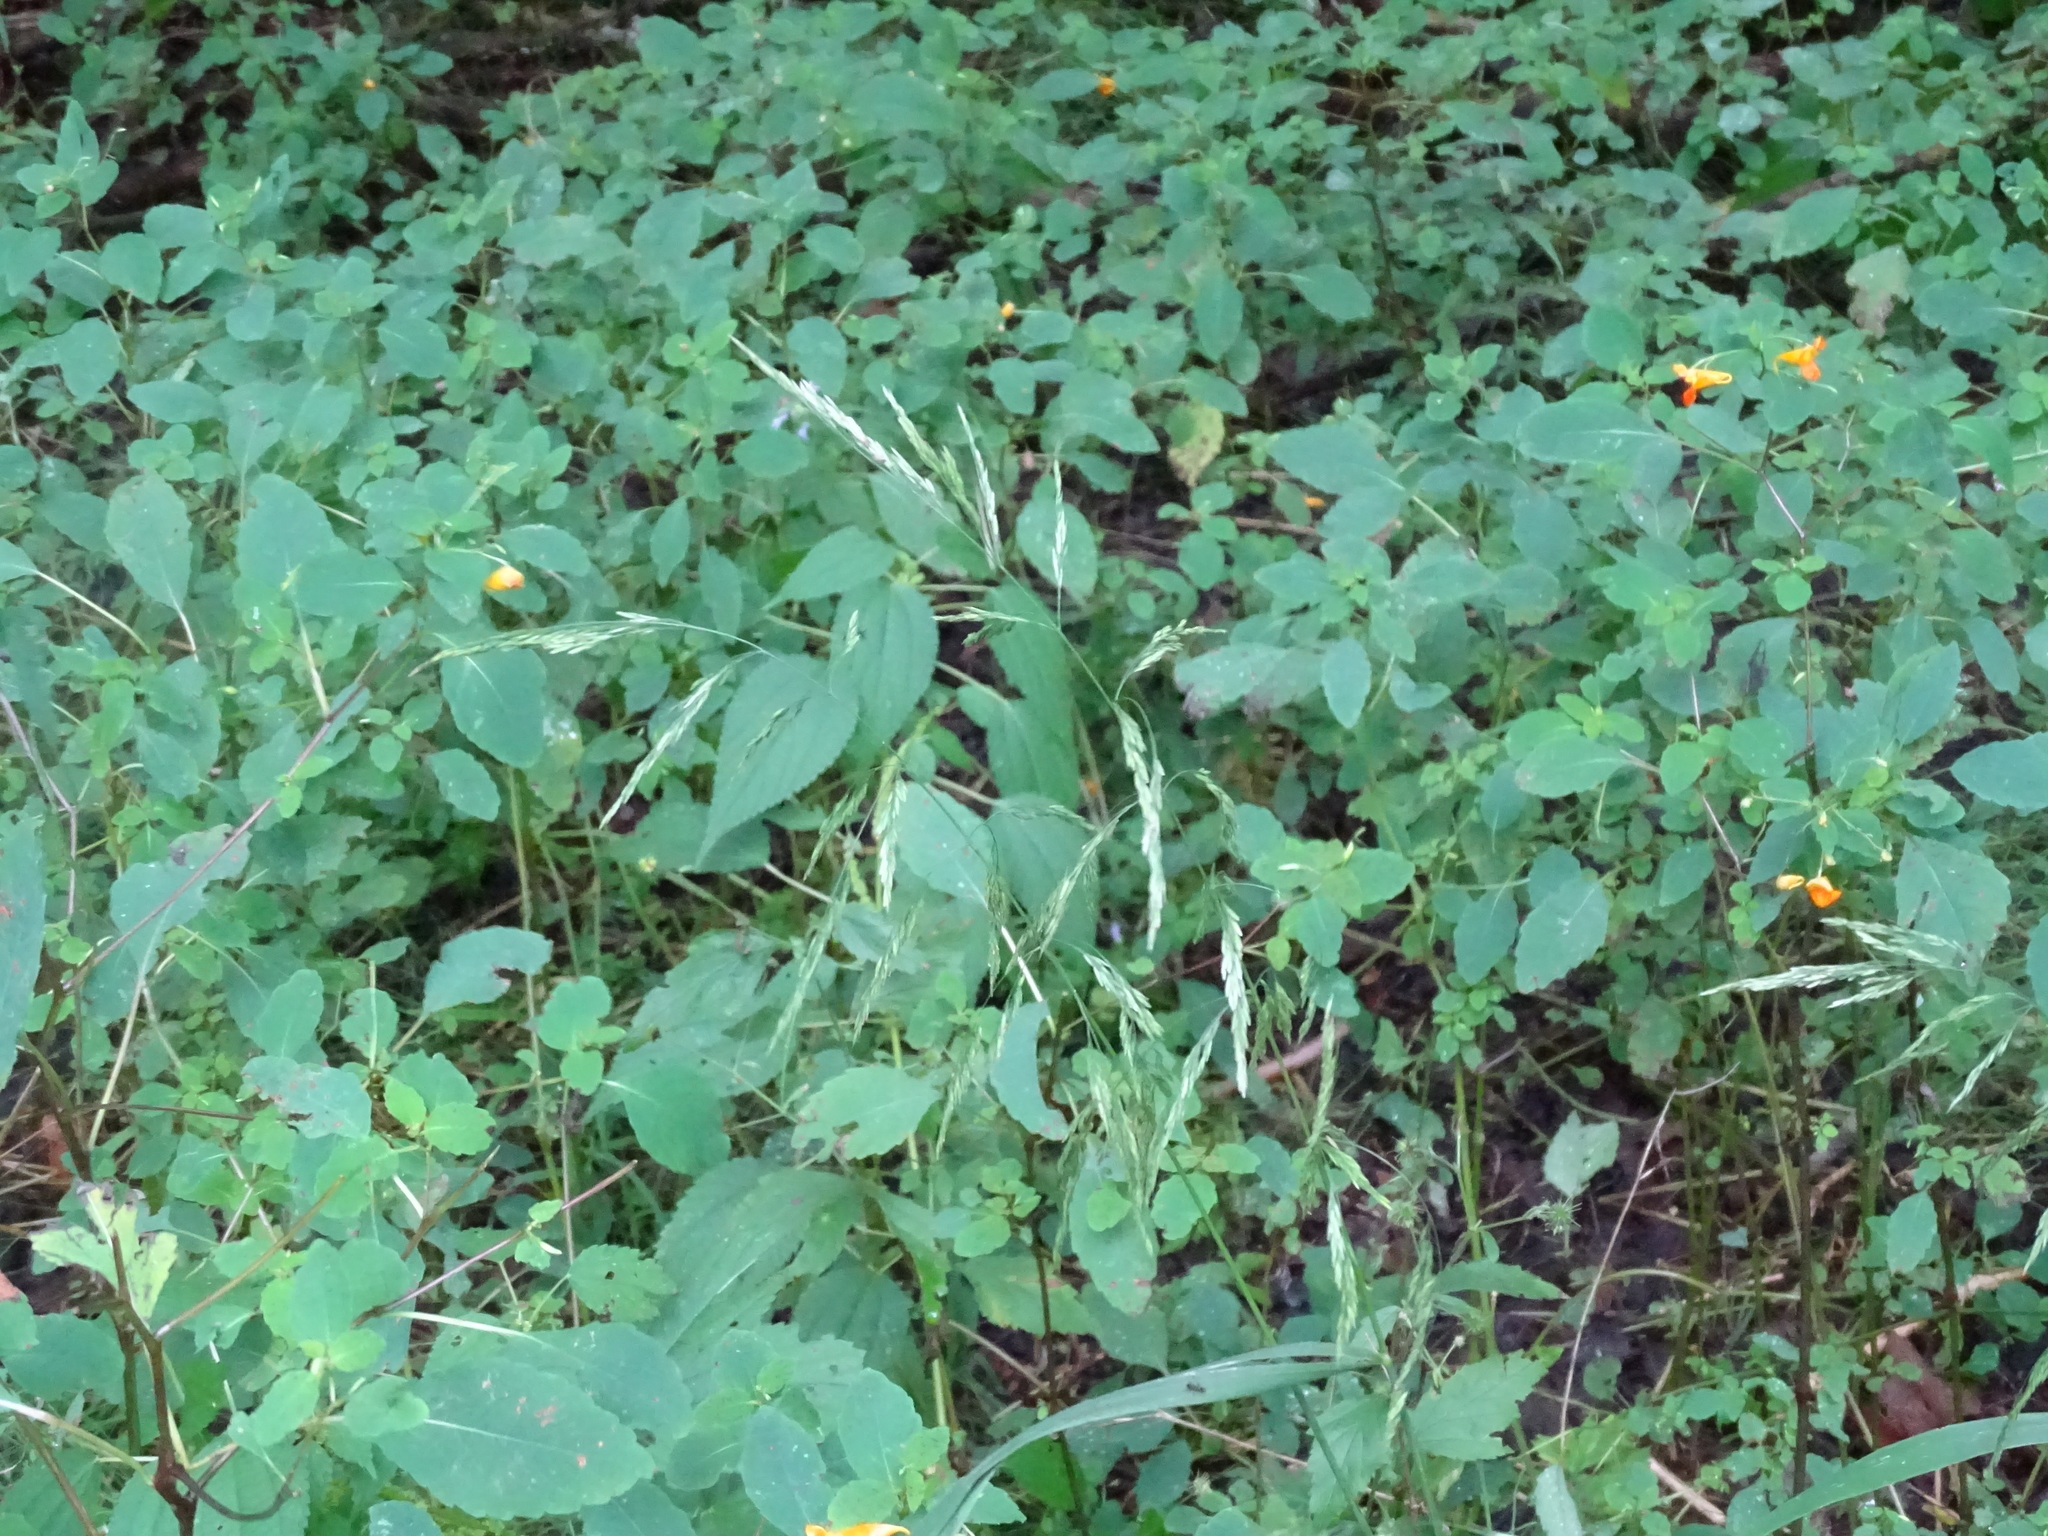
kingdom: Plantae
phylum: Tracheophyta
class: Liliopsida
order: Poales
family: Poaceae
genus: Cinna
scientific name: Cinna arundinacea
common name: Stout woodreed
